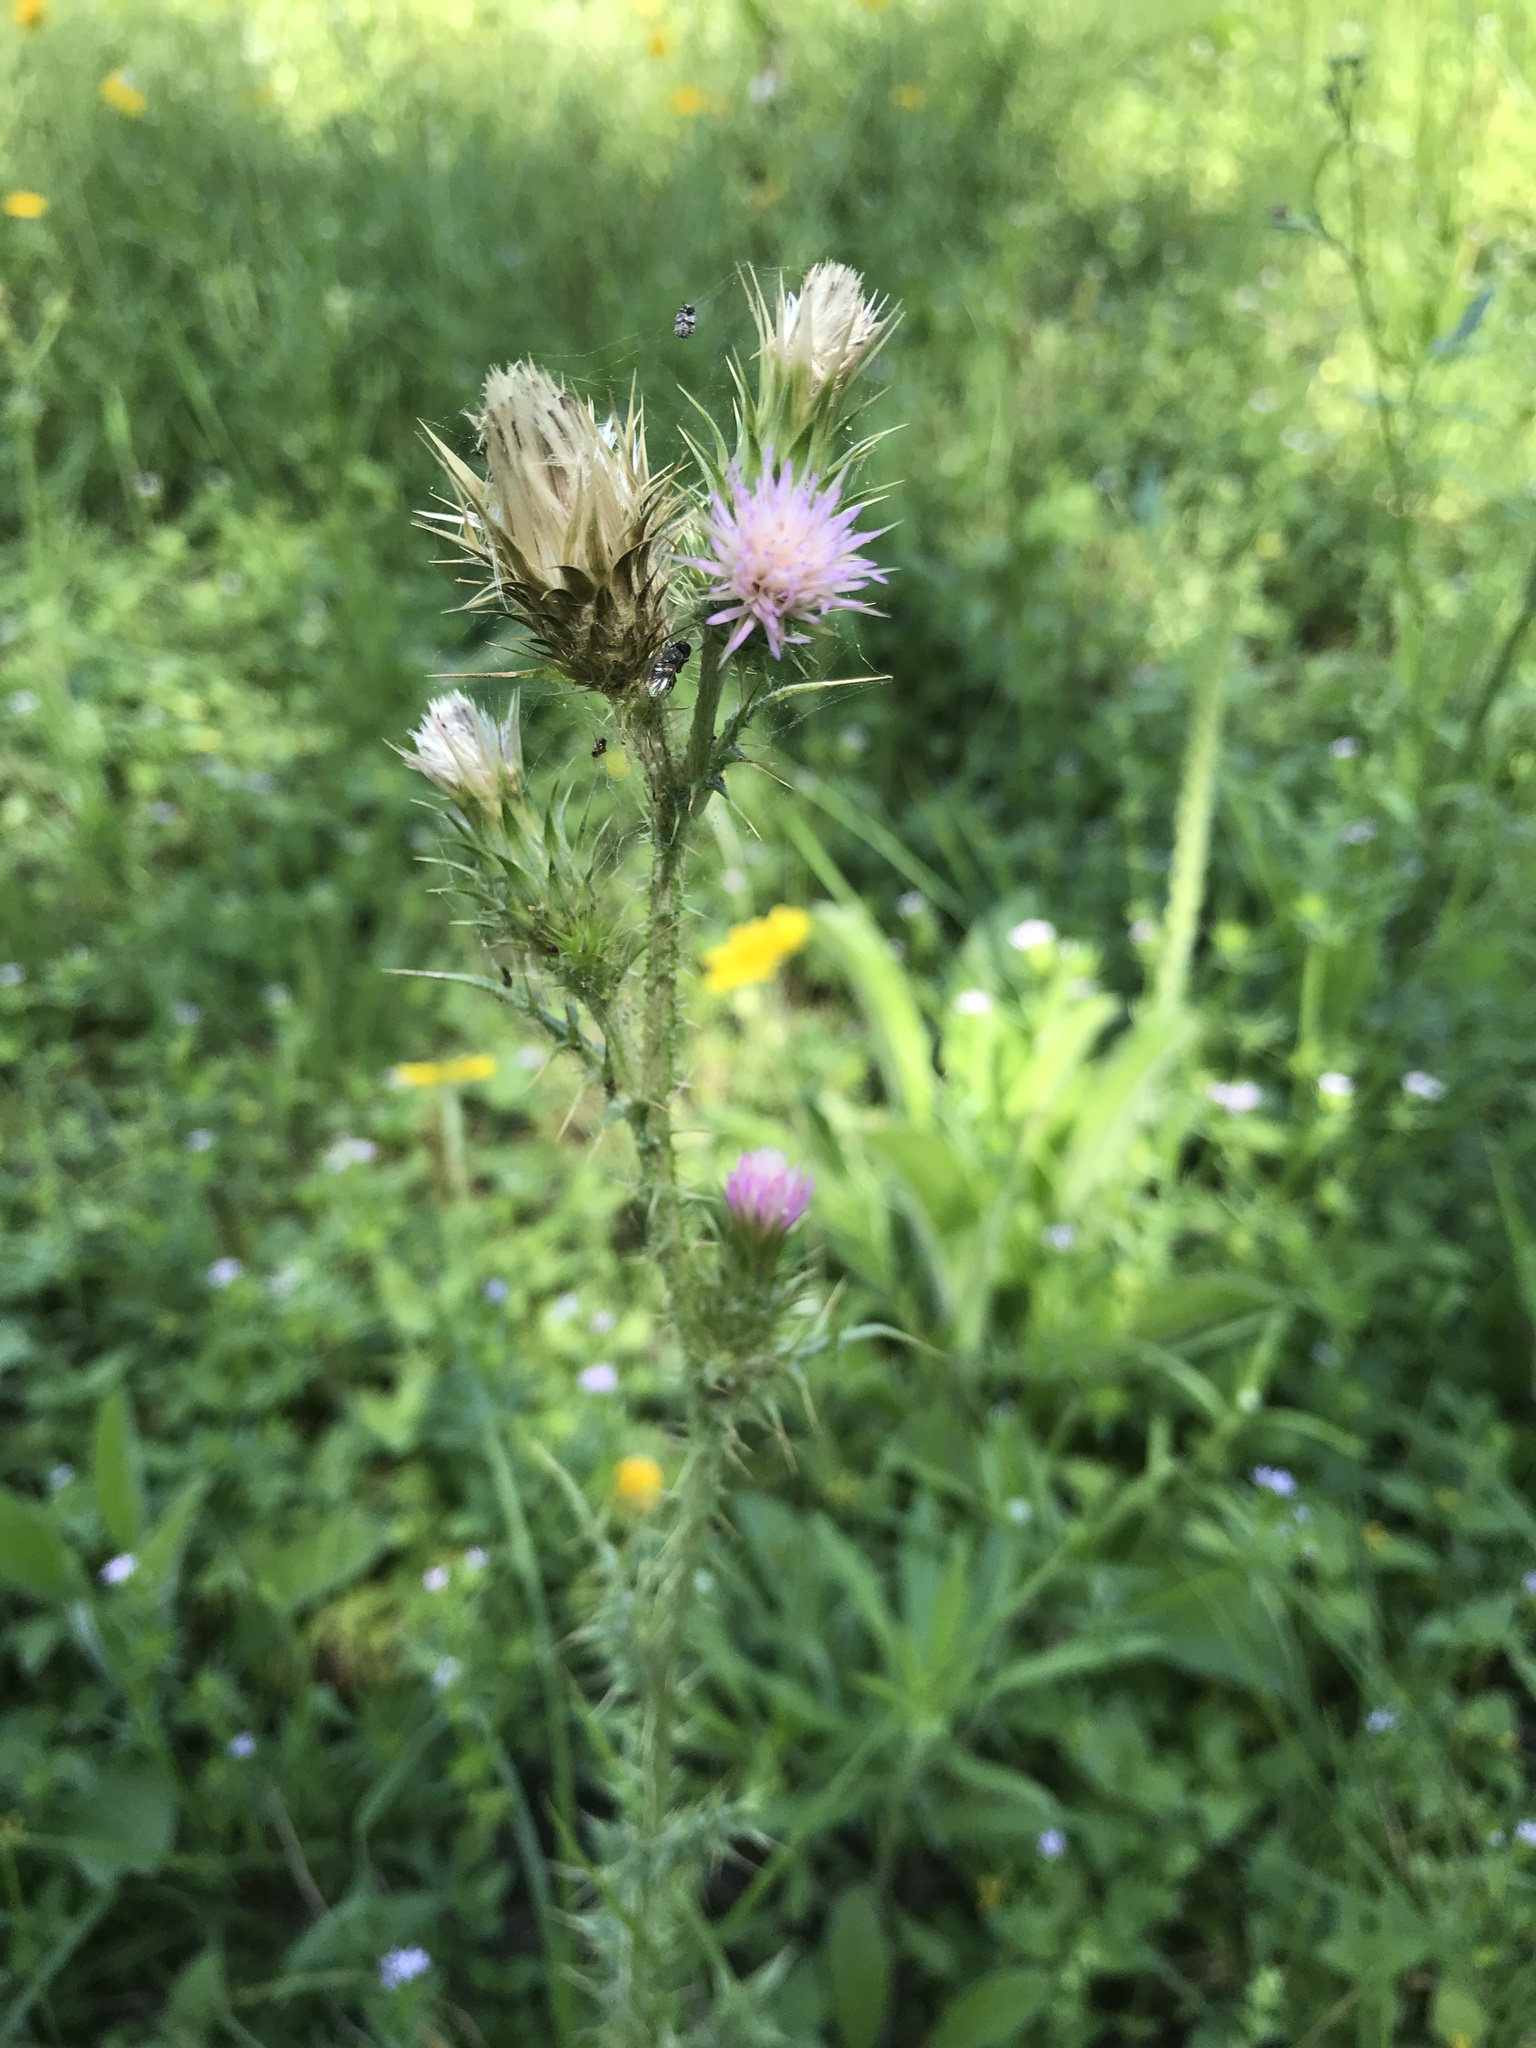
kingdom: Plantae
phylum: Tracheophyta
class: Magnoliopsida
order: Asterales
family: Asteraceae
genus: Carduus
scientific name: Carduus tenuiflorus
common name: Slender thistle
